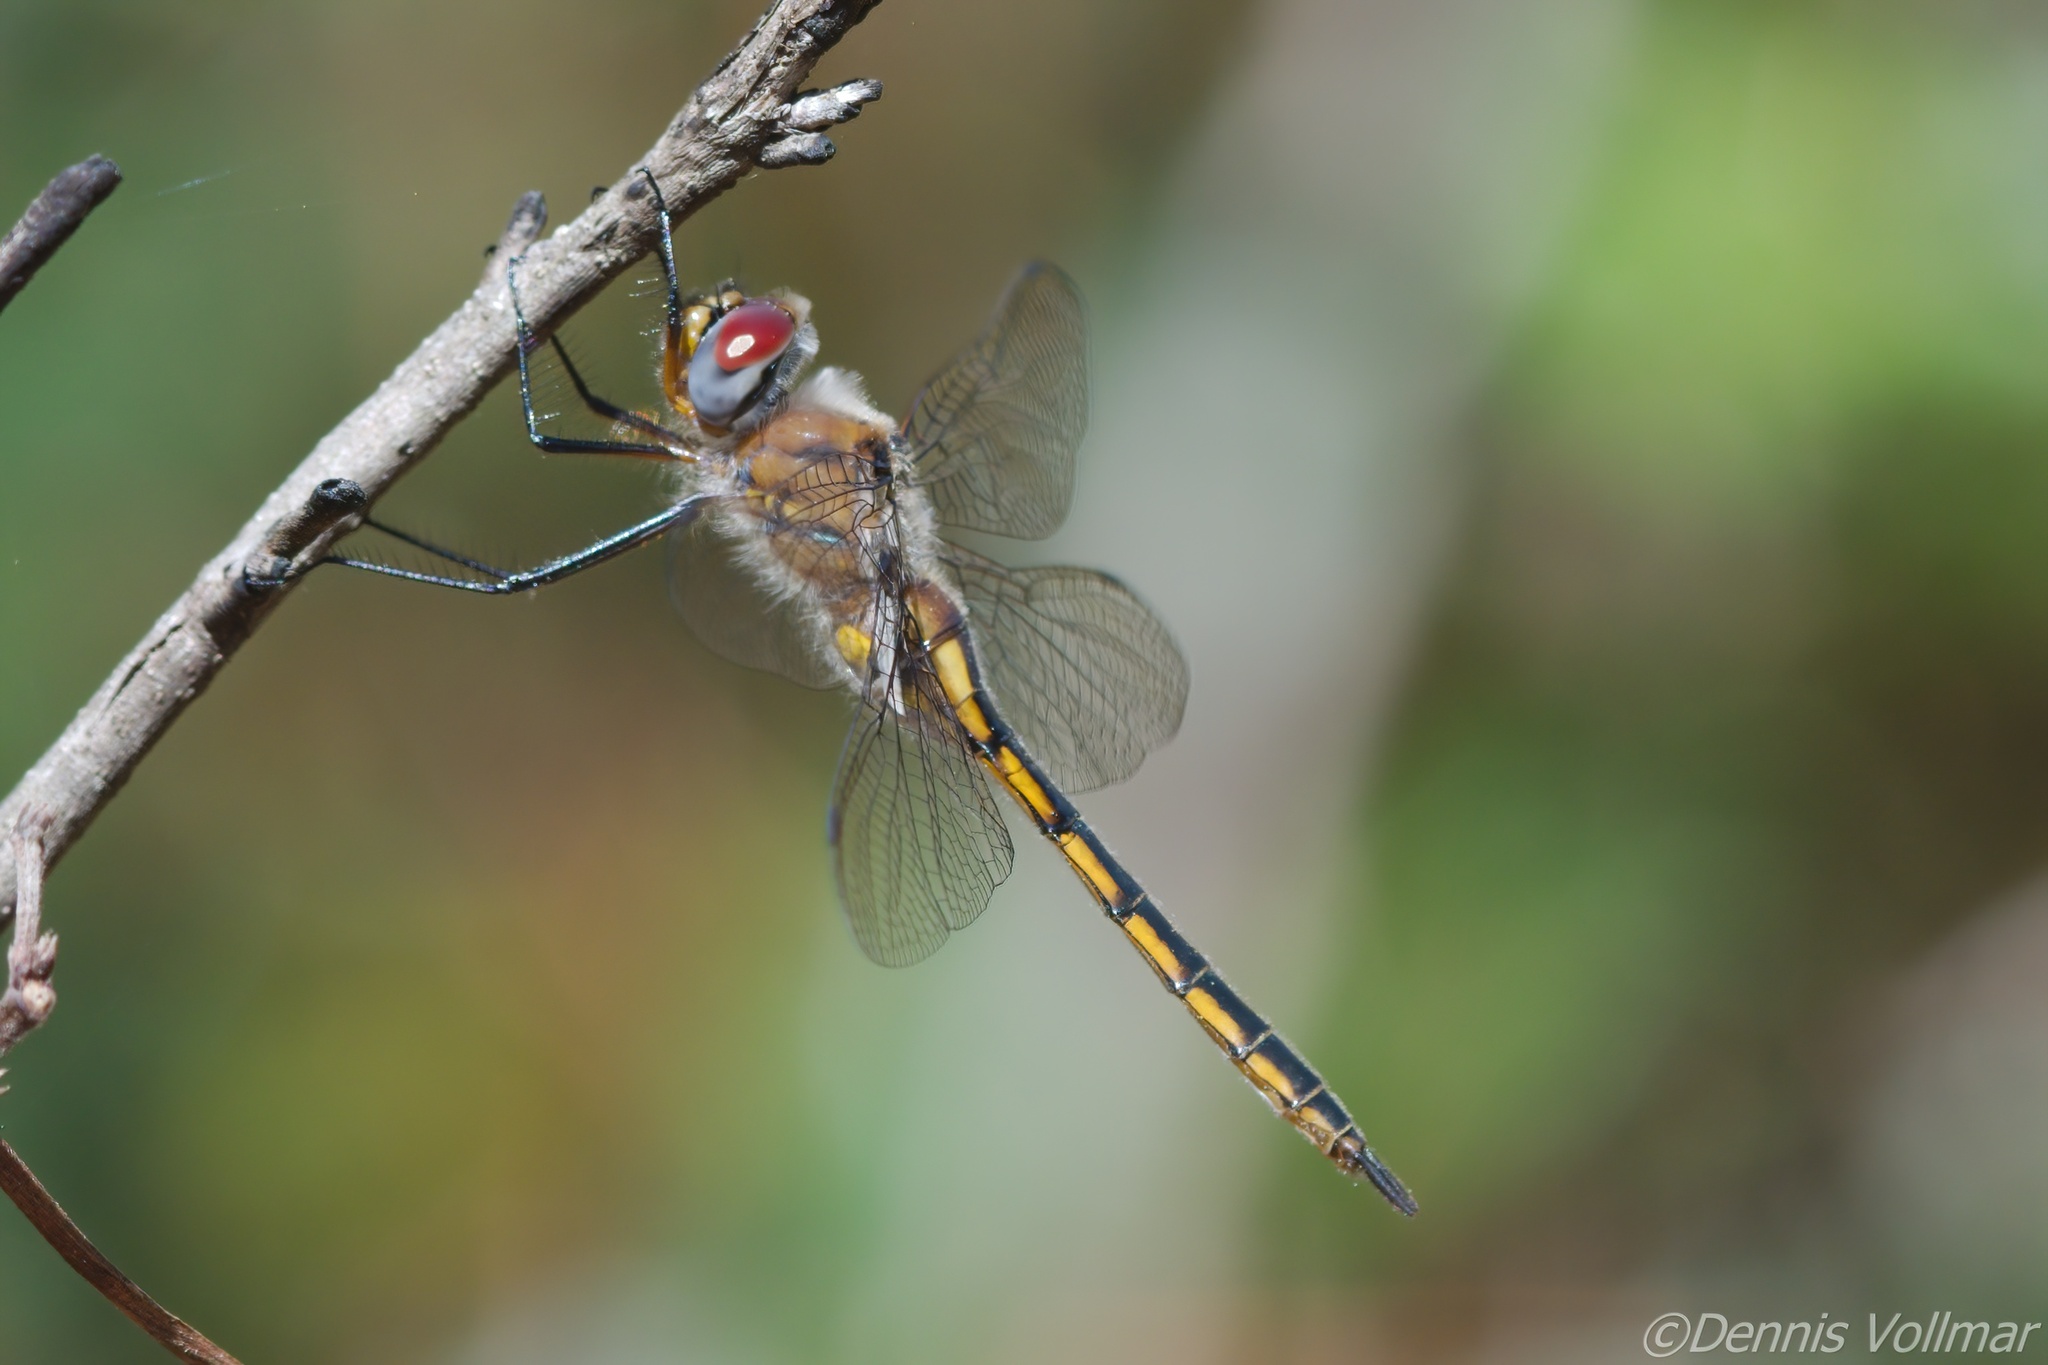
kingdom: Animalia
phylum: Arthropoda
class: Insecta
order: Odonata
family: Corduliidae
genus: Epitheca
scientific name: Epitheca costalis
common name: Slender baskettail
